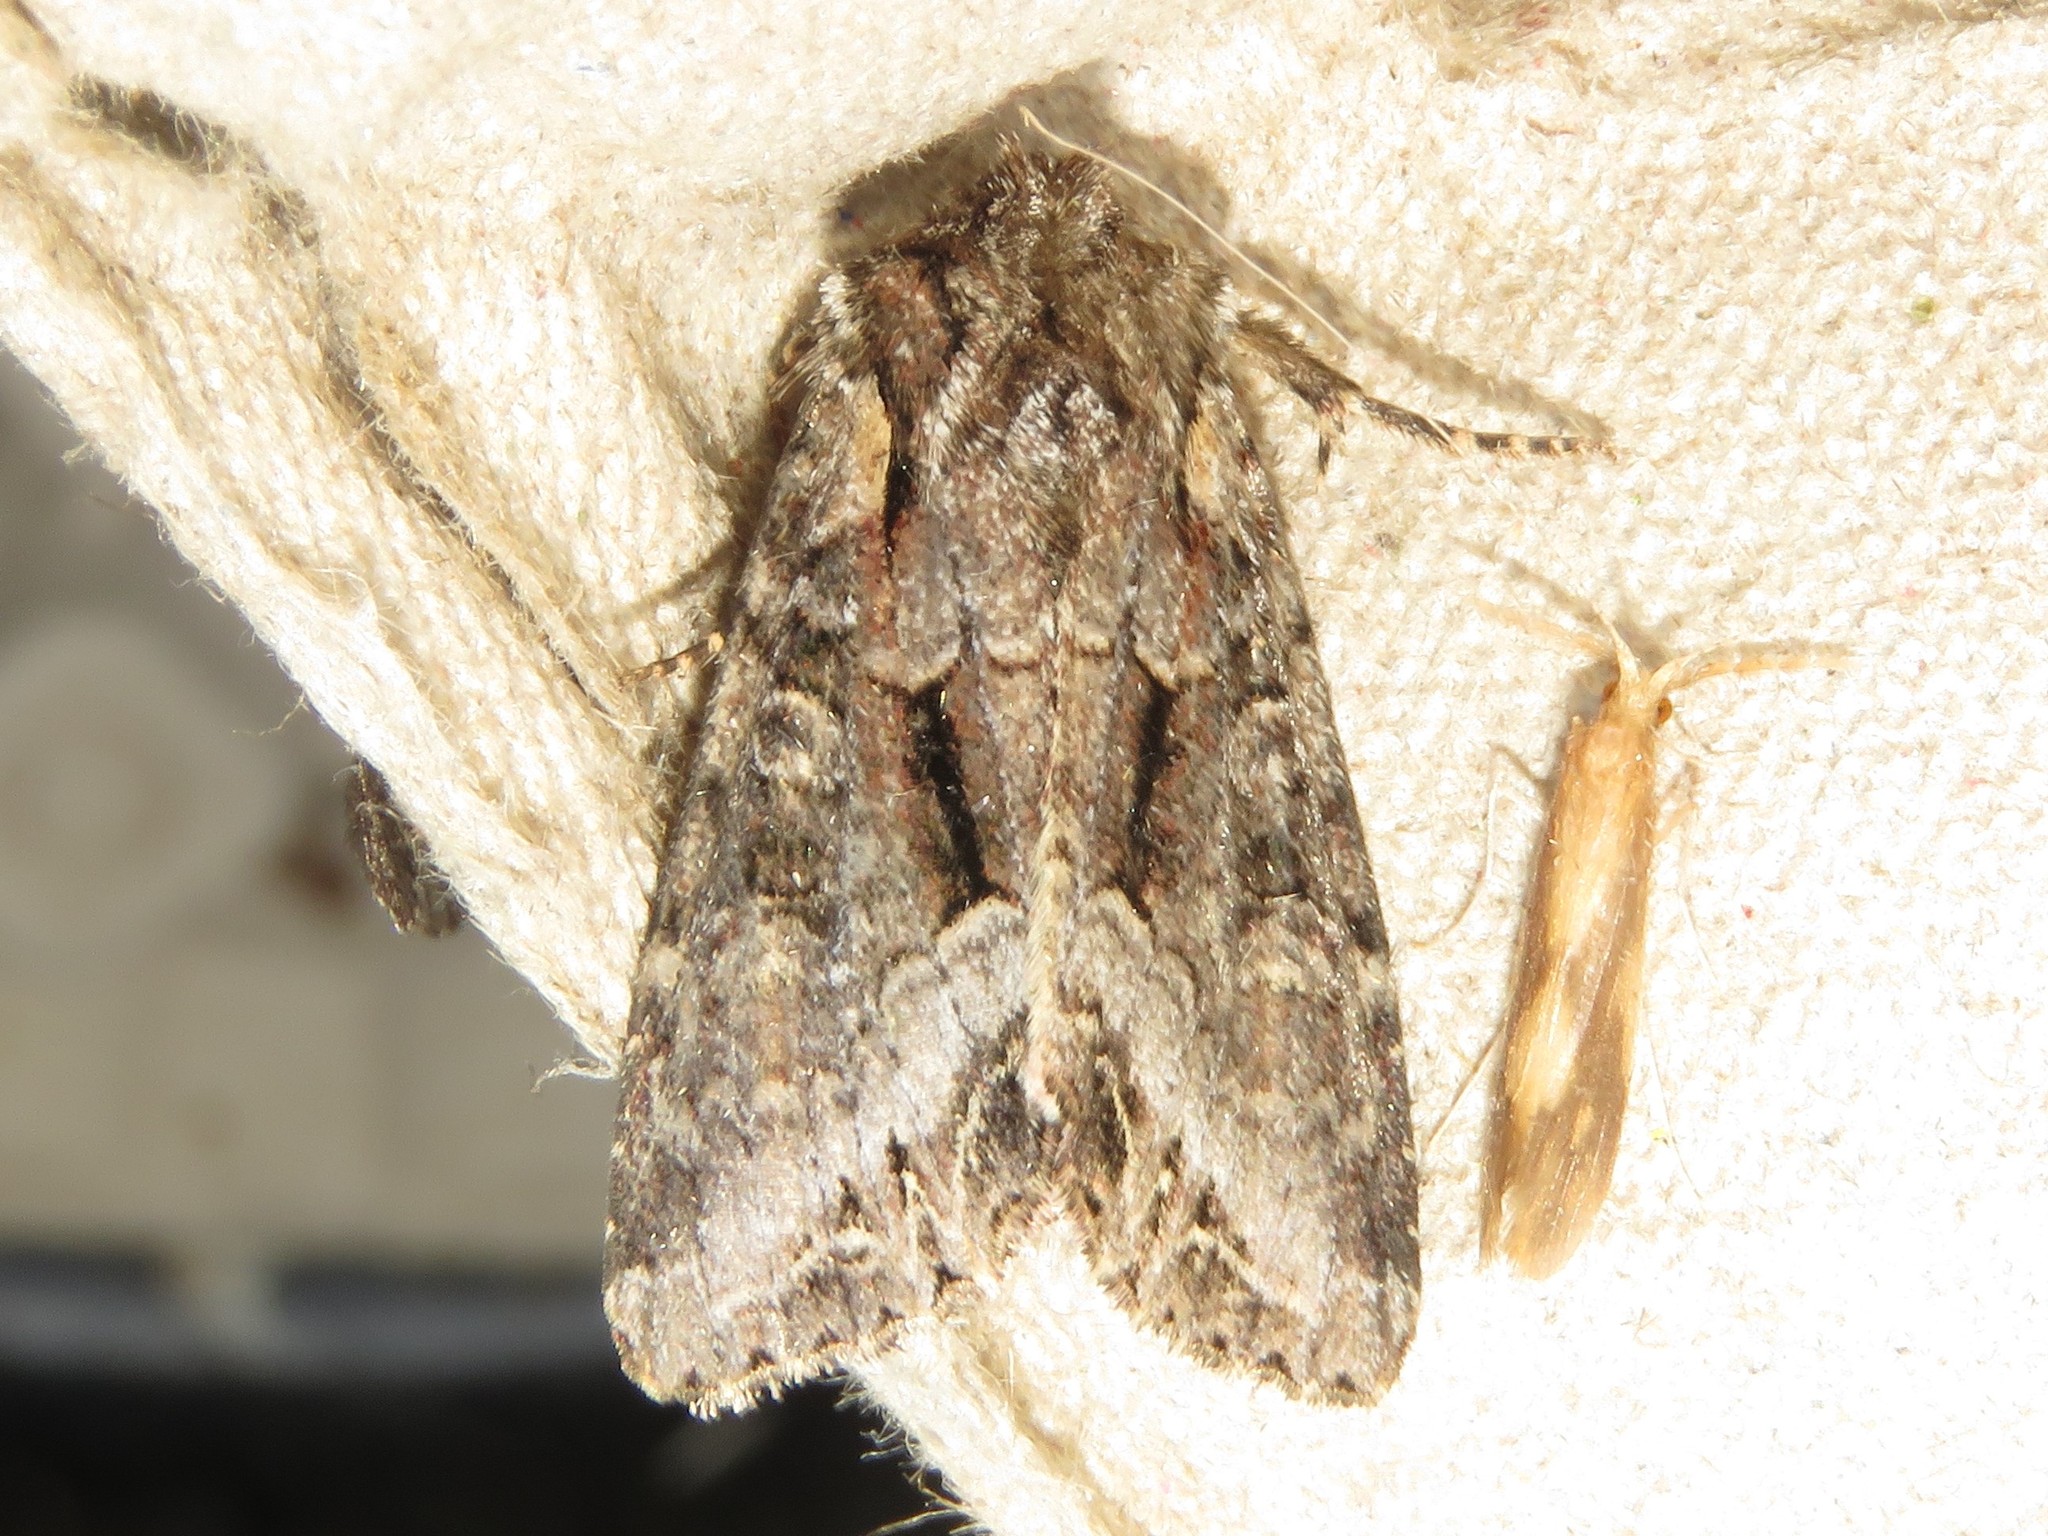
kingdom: Animalia
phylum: Arthropoda
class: Insecta
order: Lepidoptera
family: Noctuidae
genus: Lacanobia
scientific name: Lacanobia grandis
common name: Grand arches moth
